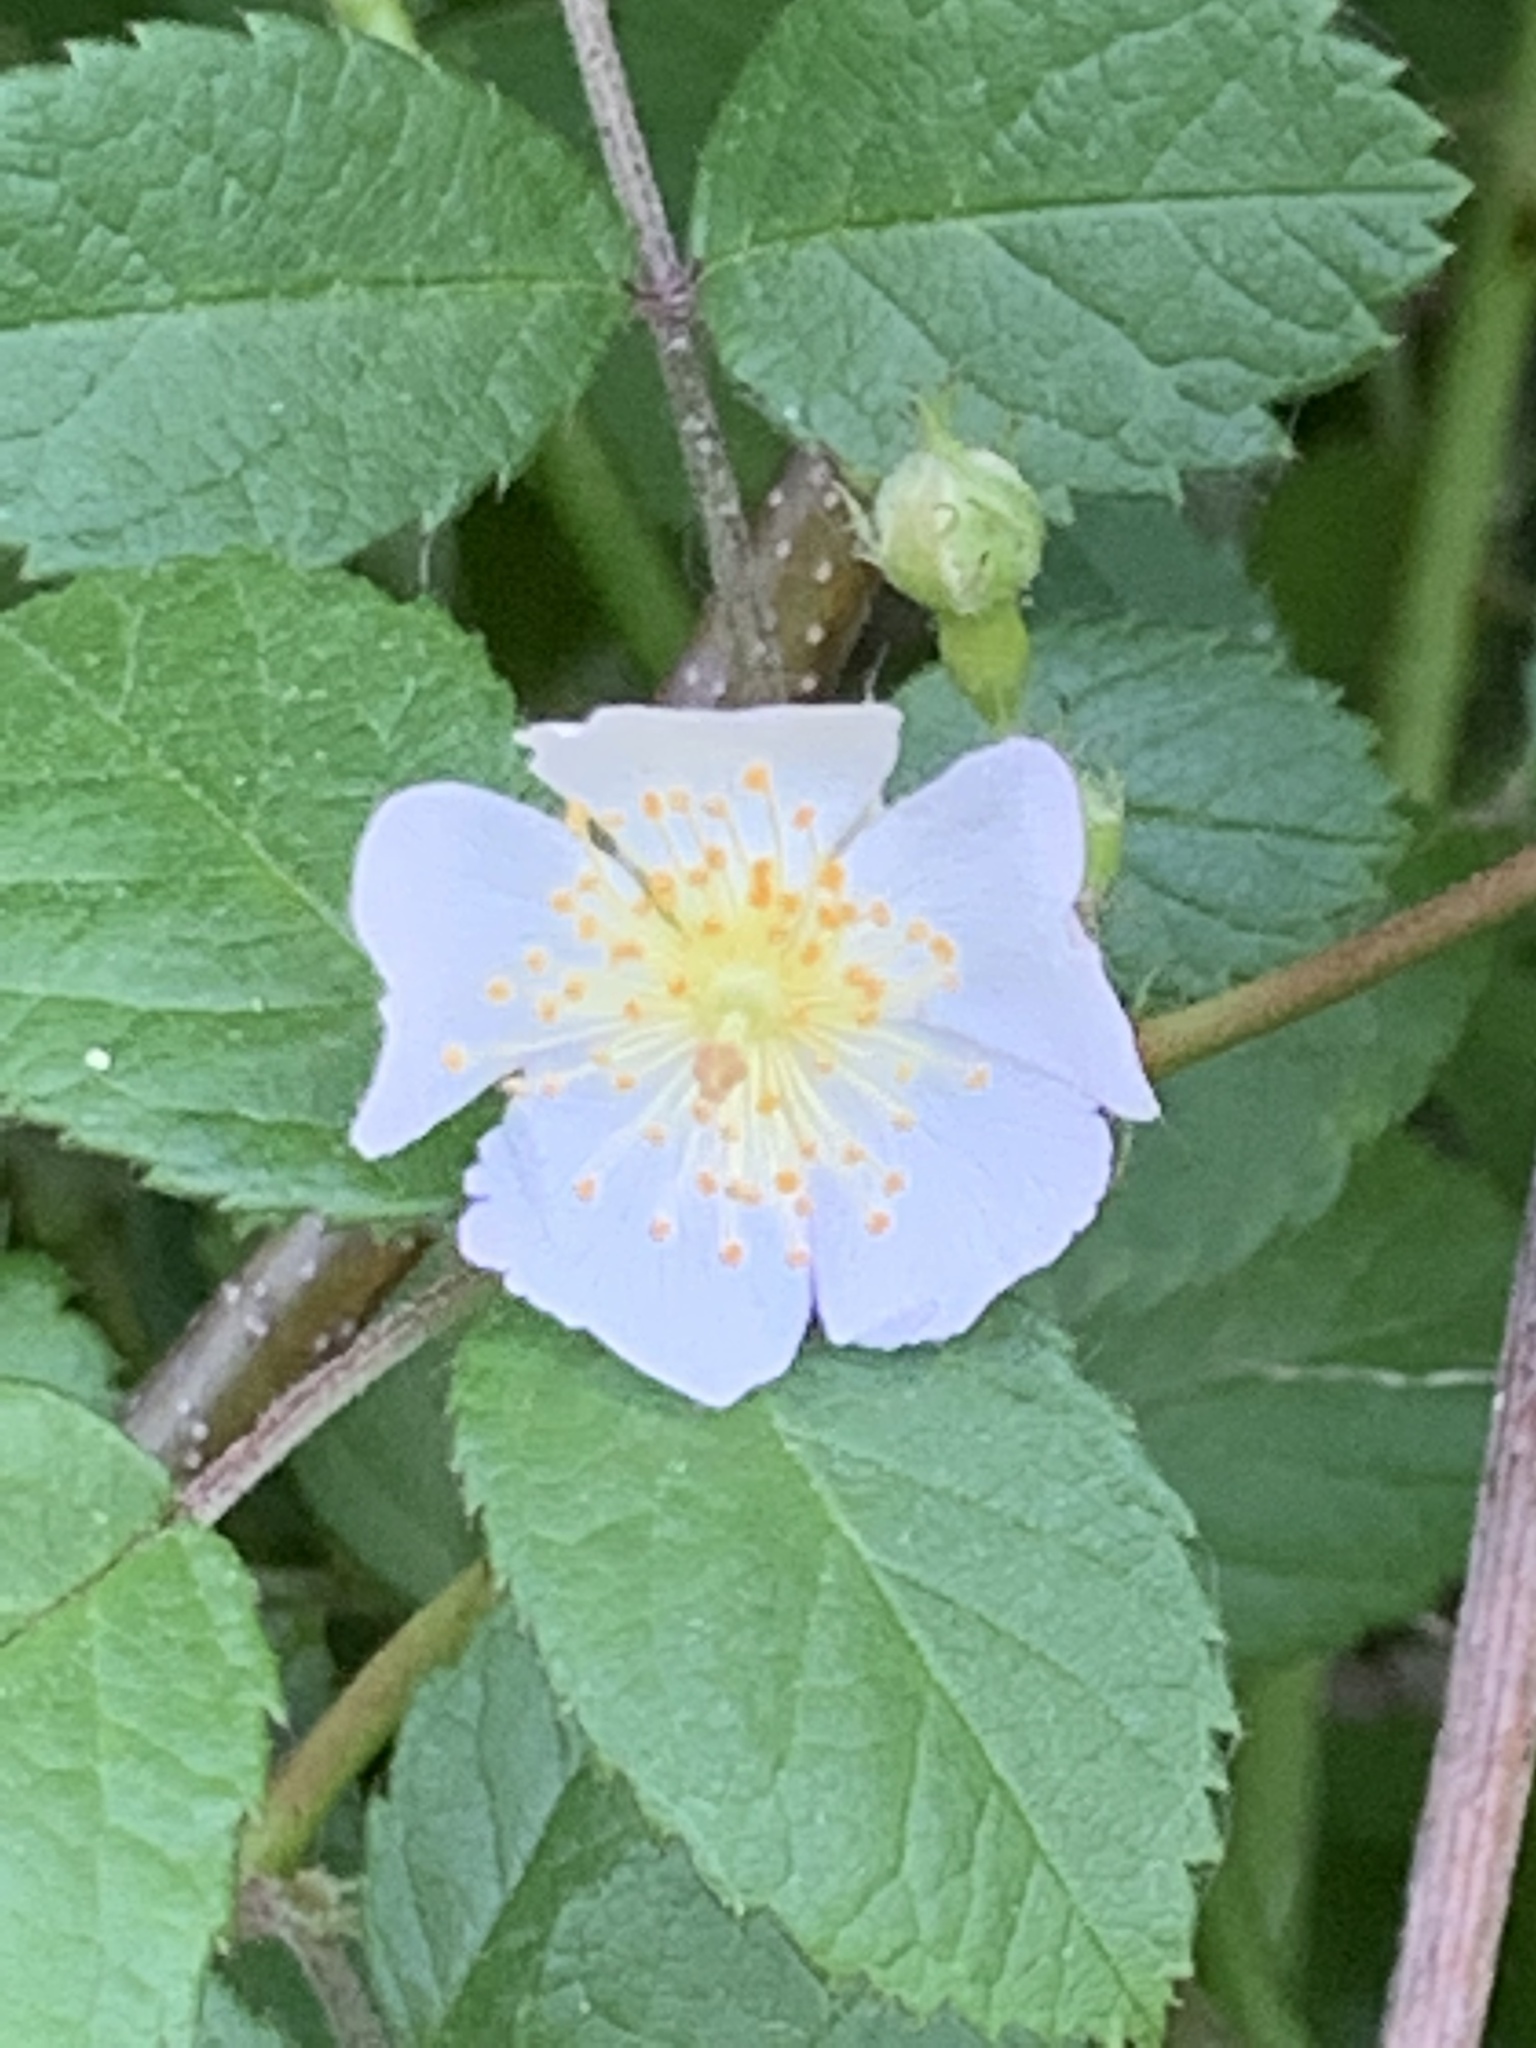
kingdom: Plantae
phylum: Tracheophyta
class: Magnoliopsida
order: Rosales
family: Rosaceae
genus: Rosa
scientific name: Rosa multiflora
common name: Multiflora rose
